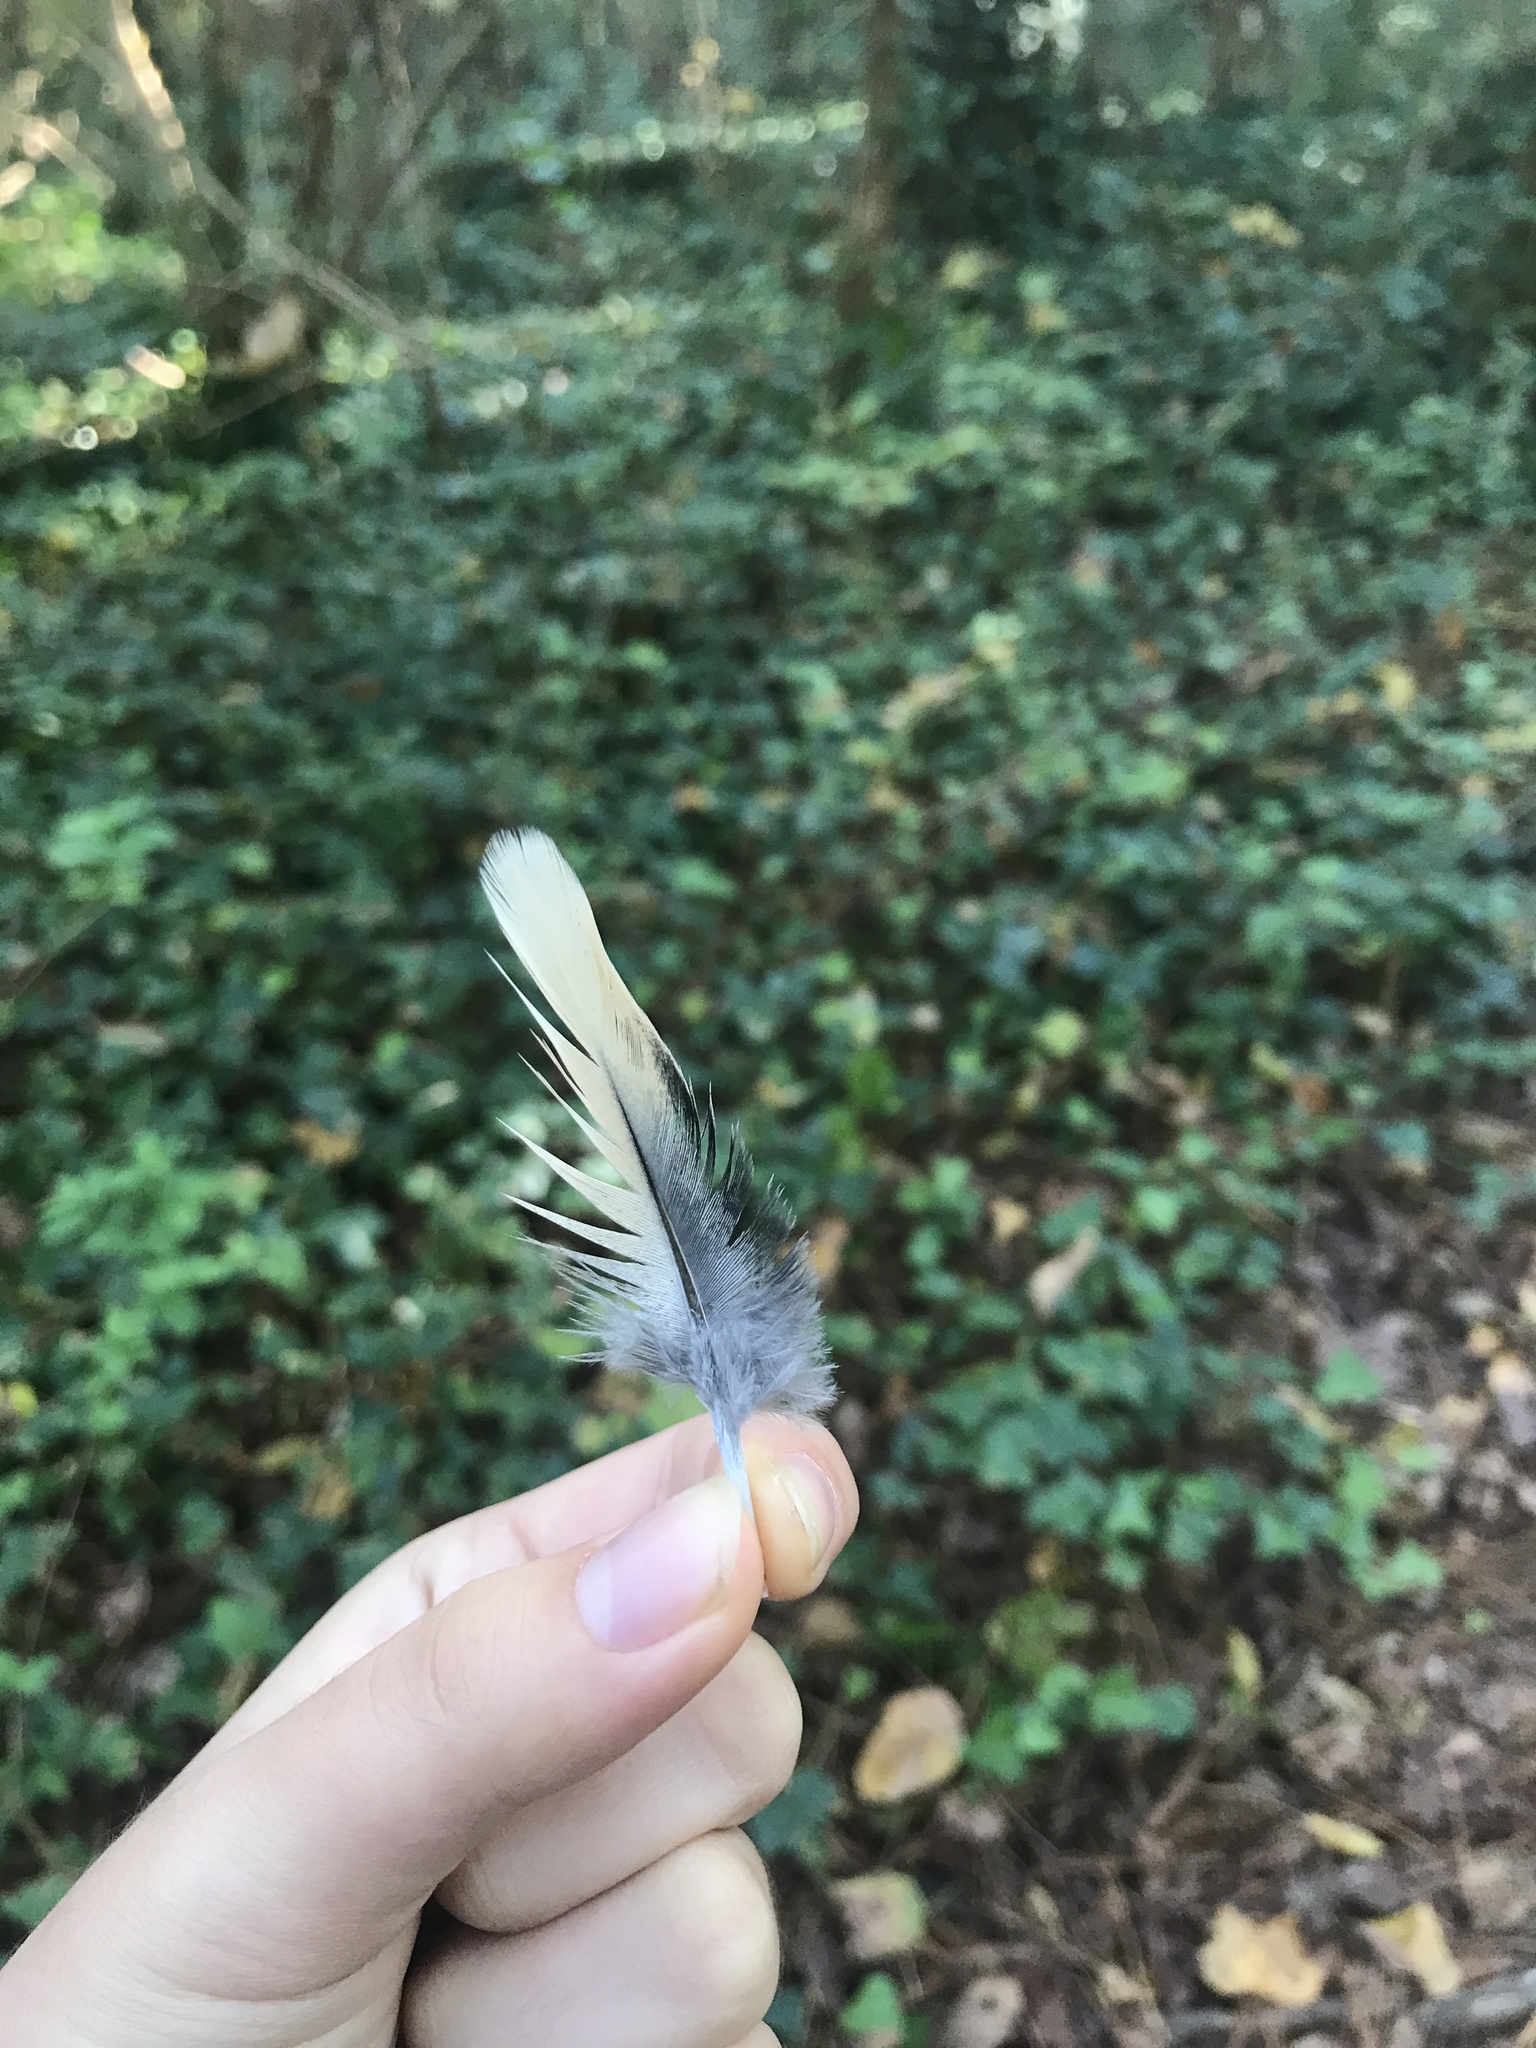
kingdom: Animalia
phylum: Chordata
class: Aves
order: Columbiformes
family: Columbidae
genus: Zenaida
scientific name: Zenaida macroura
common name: Mourning dove
